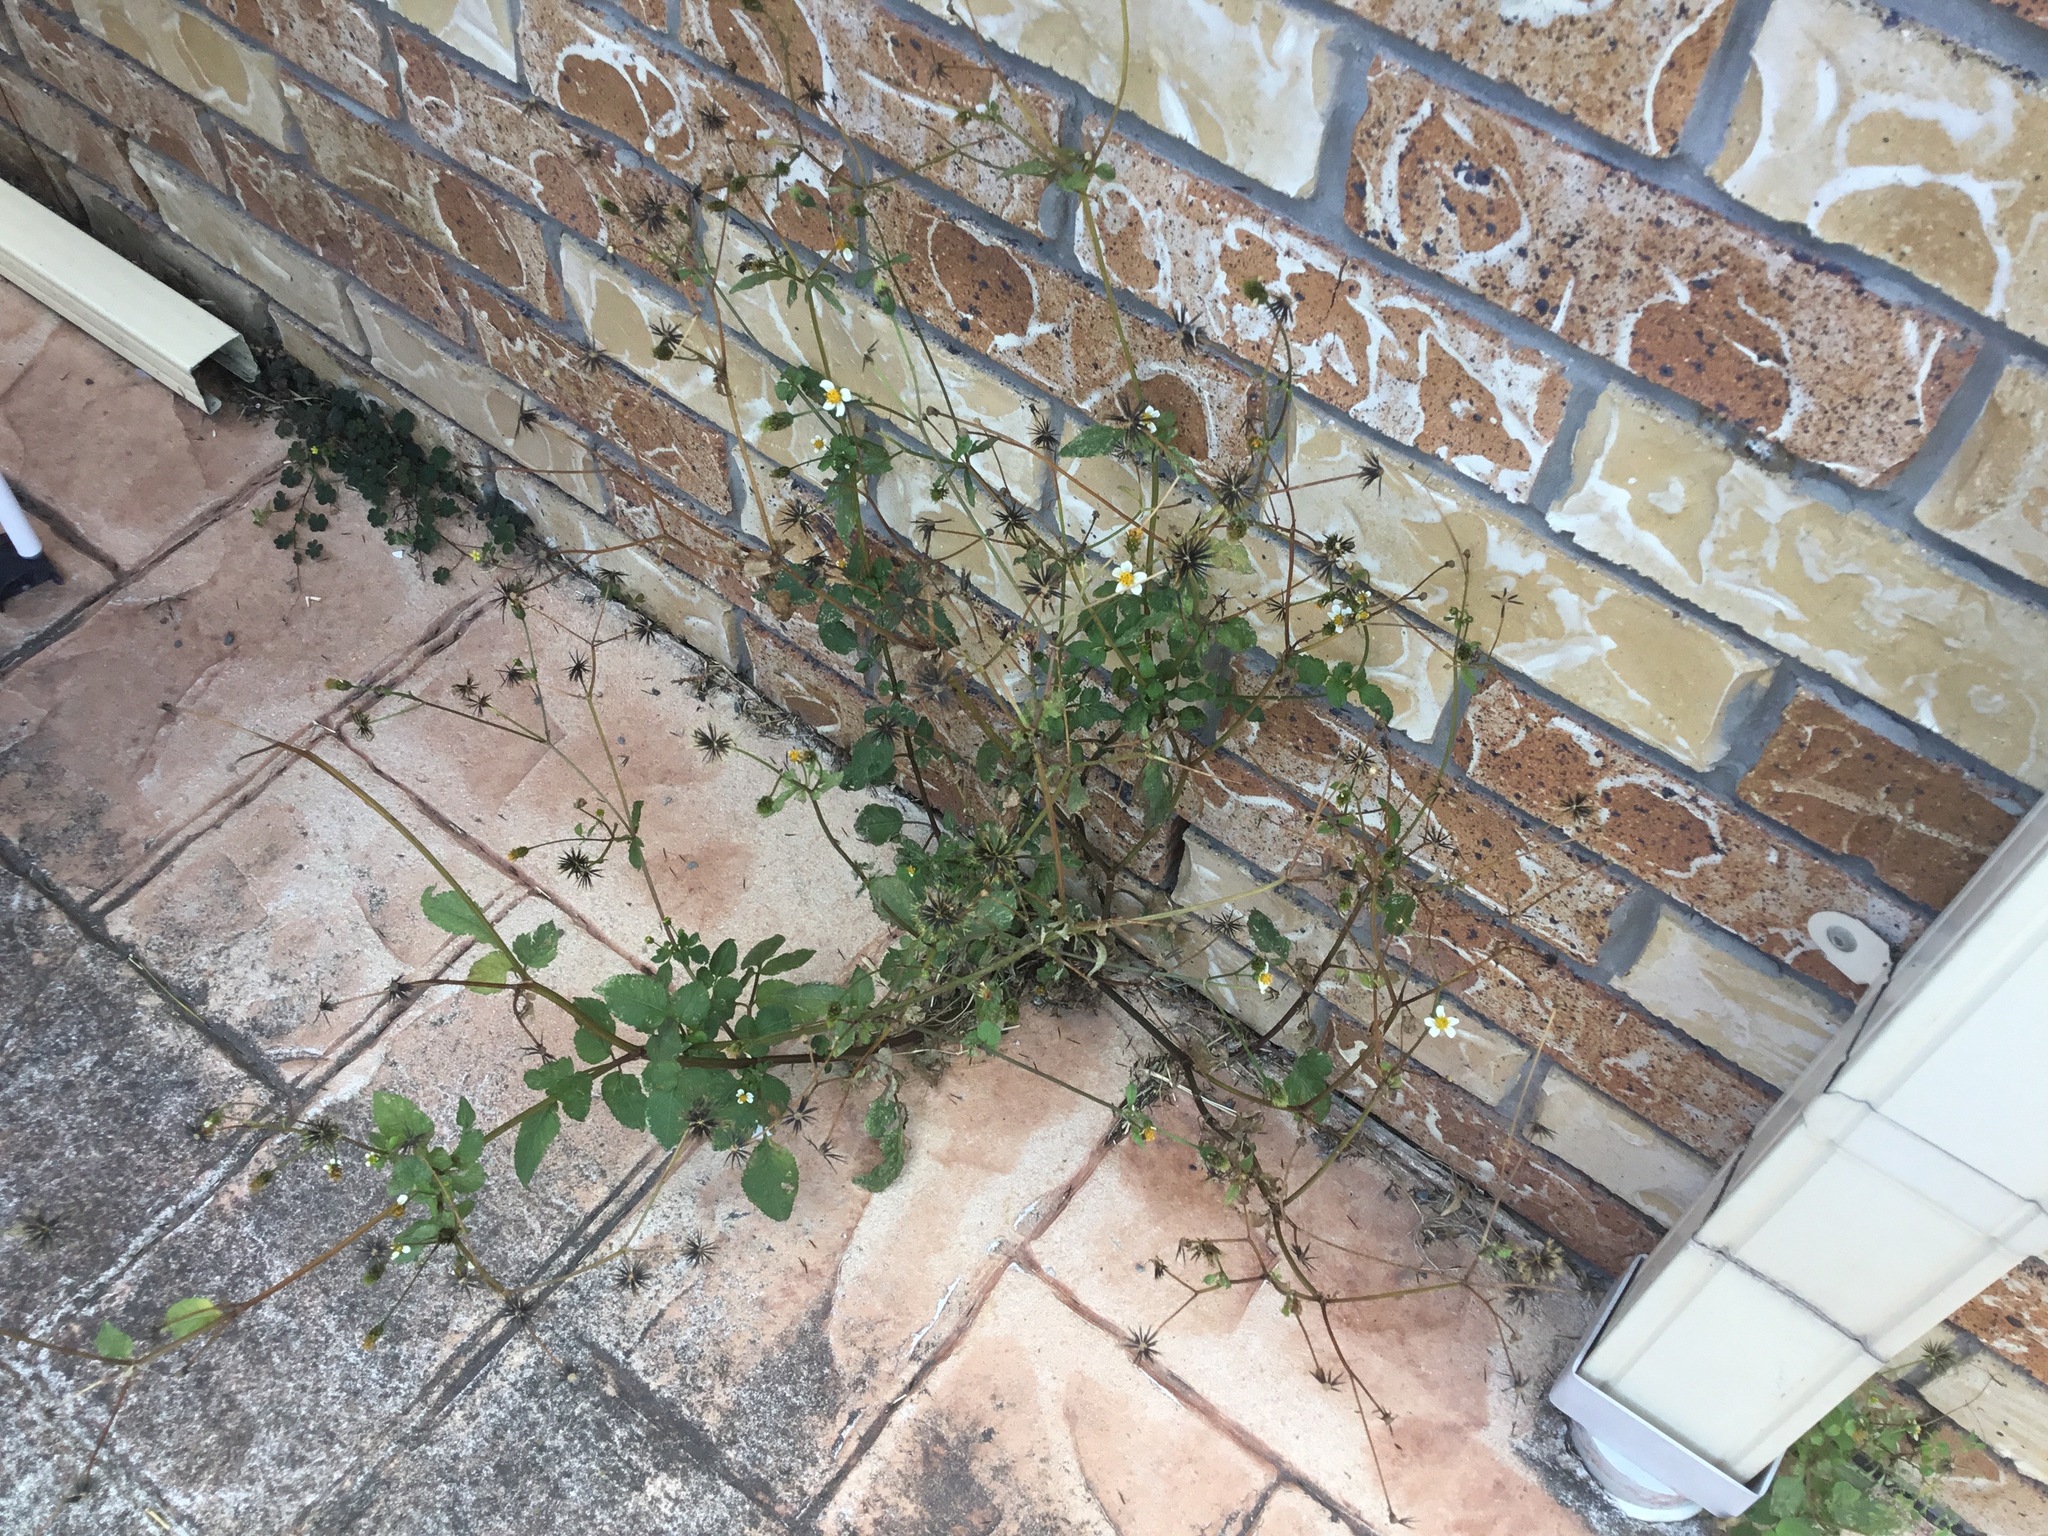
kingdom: Plantae
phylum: Tracheophyta
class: Magnoliopsida
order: Asterales
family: Asteraceae
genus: Bidens
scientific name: Bidens pilosa
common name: Black-jack
